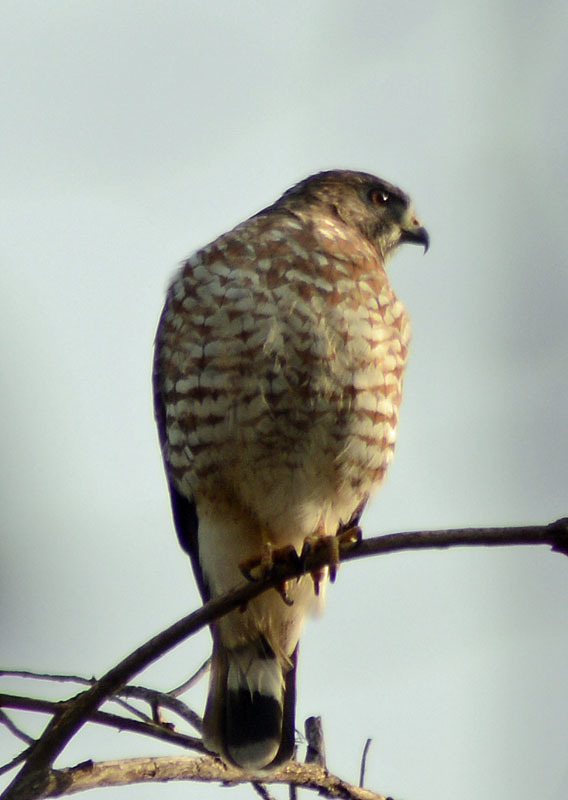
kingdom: Animalia
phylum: Chordata
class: Aves
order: Accipitriformes
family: Accipitridae
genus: Buteo
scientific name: Buteo platypterus
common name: Broad-winged hawk
